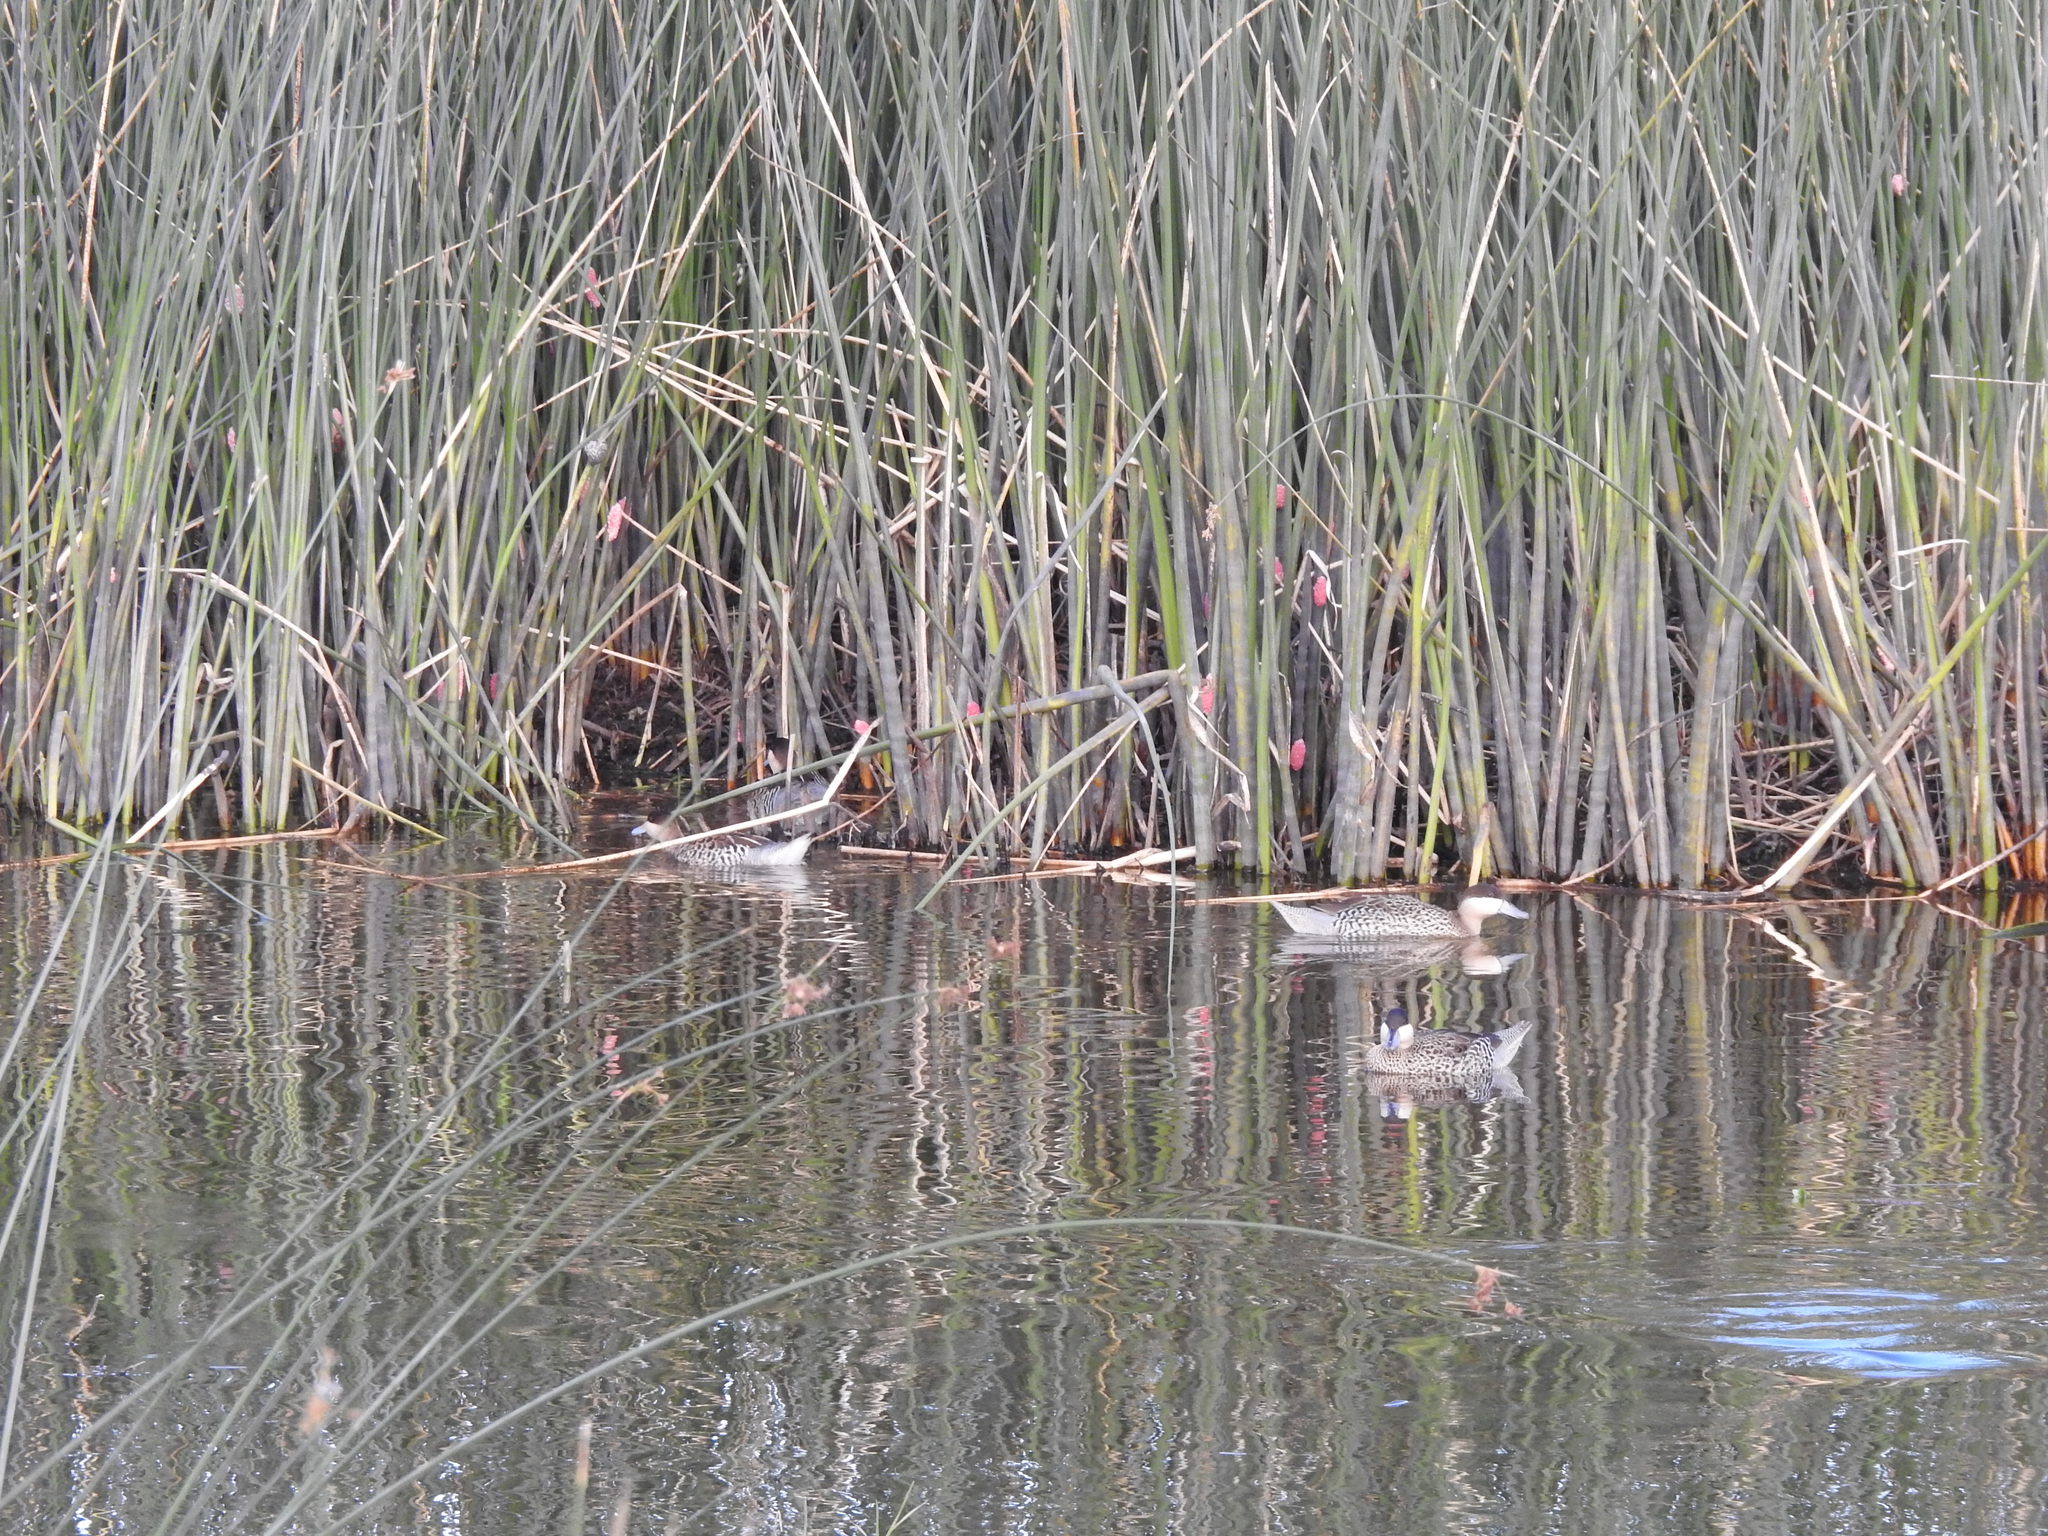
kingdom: Animalia
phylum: Chordata
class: Aves
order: Anseriformes
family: Anatidae
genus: Spatula
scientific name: Spatula versicolor
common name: Silver teal
